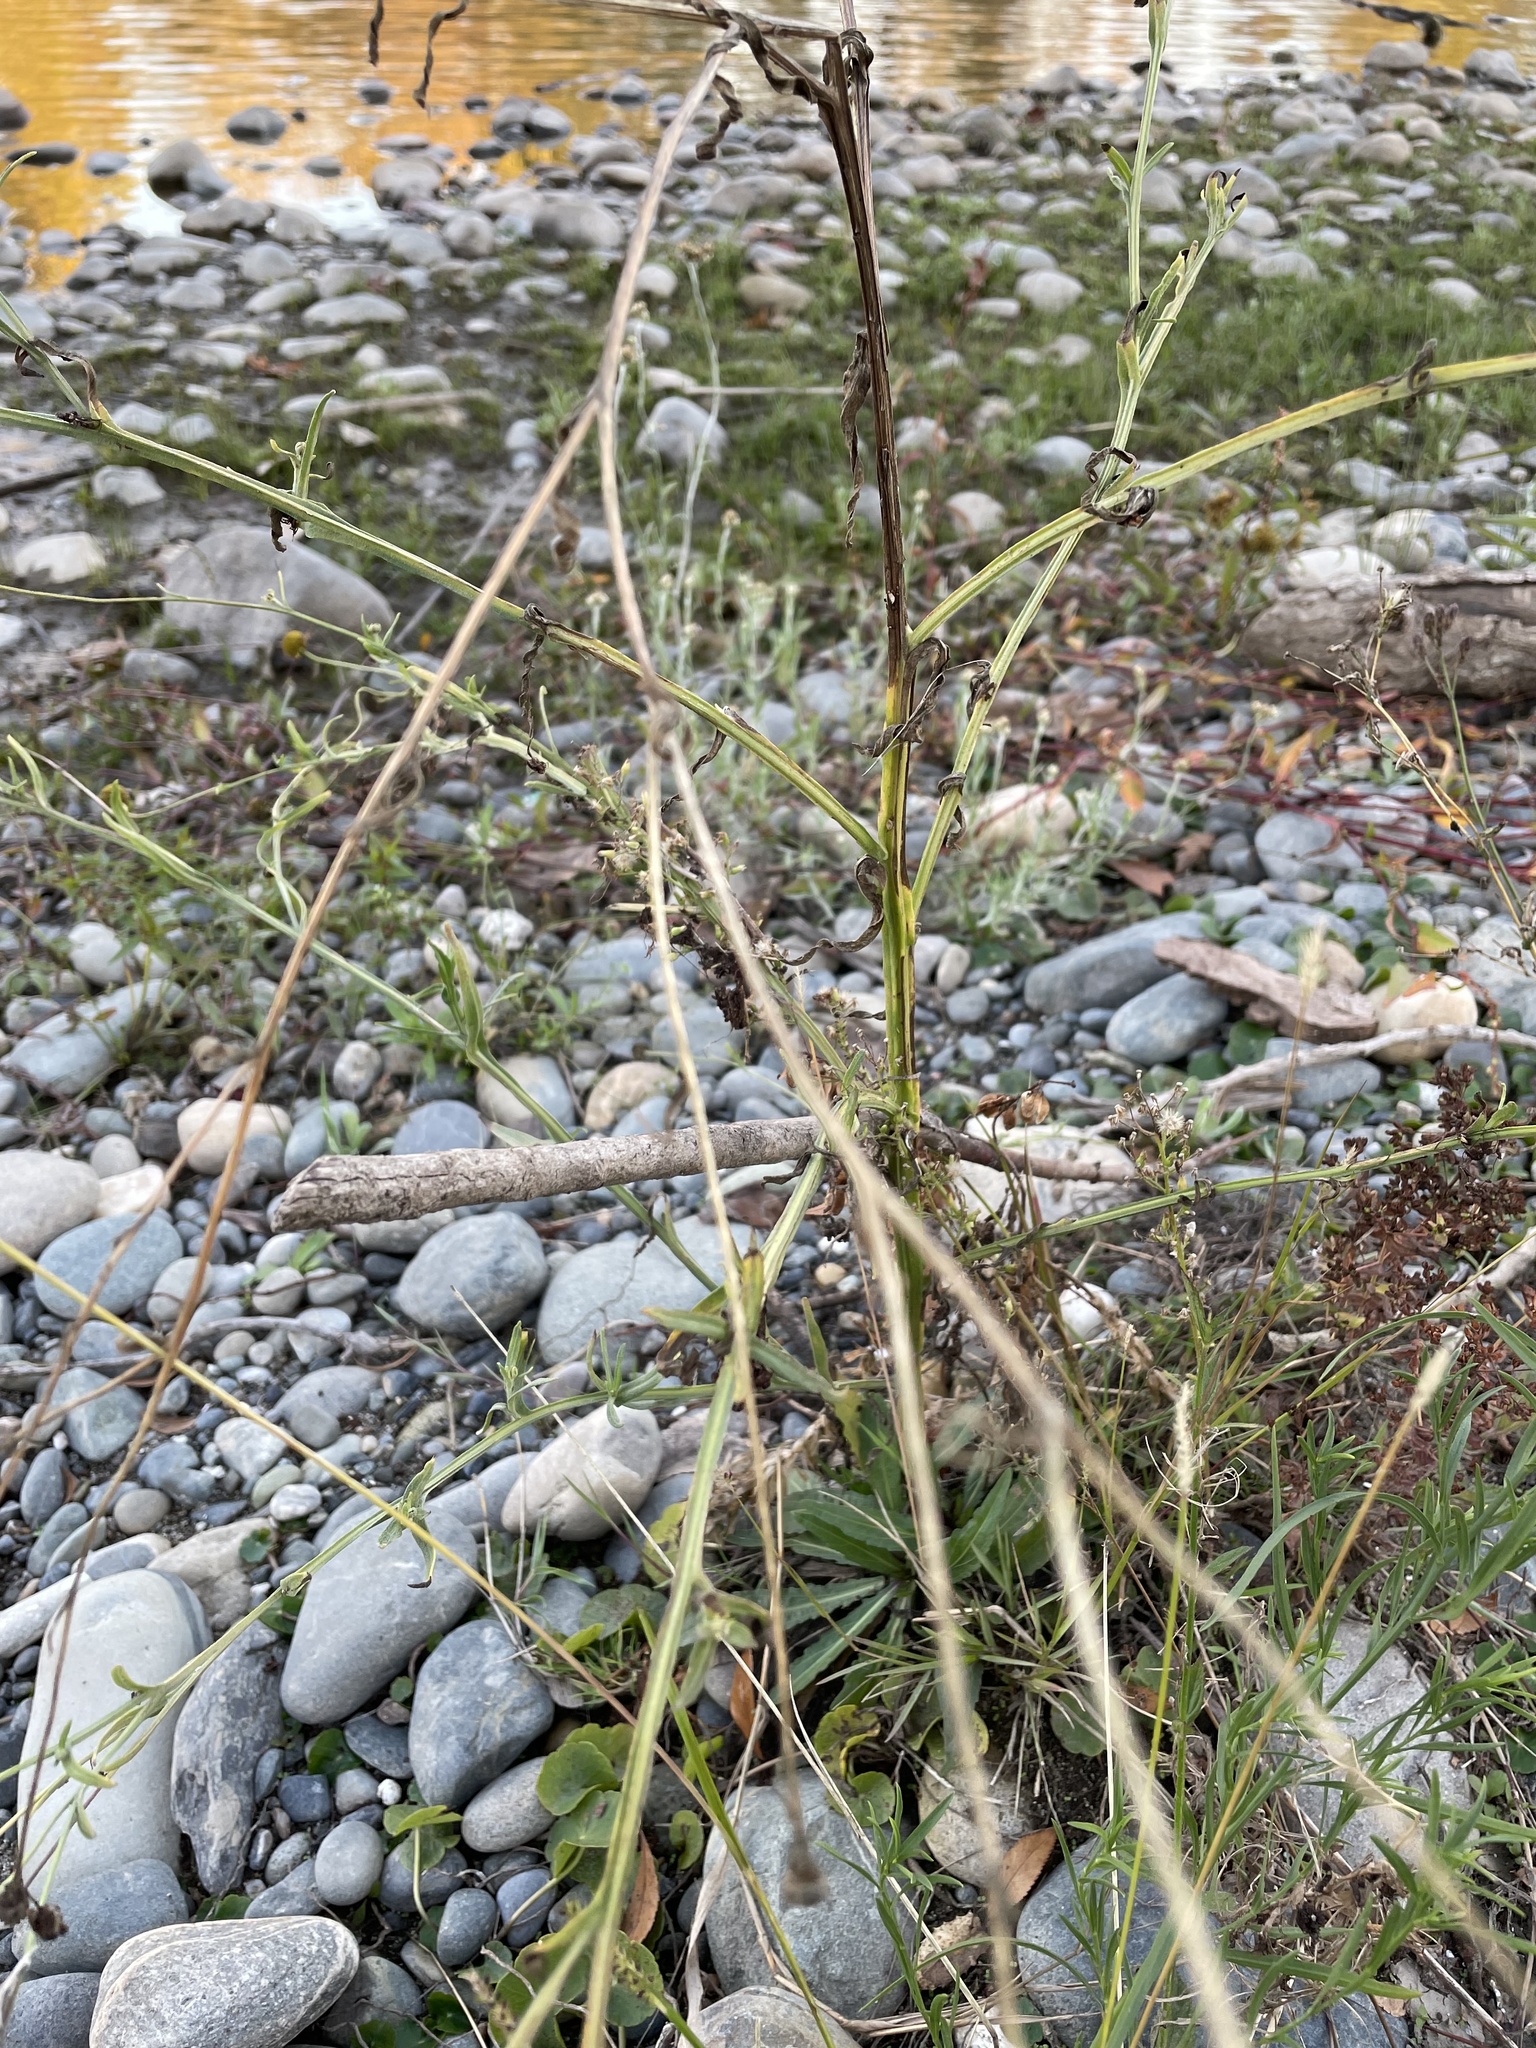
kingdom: Plantae
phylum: Tracheophyta
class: Magnoliopsida
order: Asterales
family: Asteraceae
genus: Helenium
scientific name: Helenium puberulum
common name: Sneezewort
